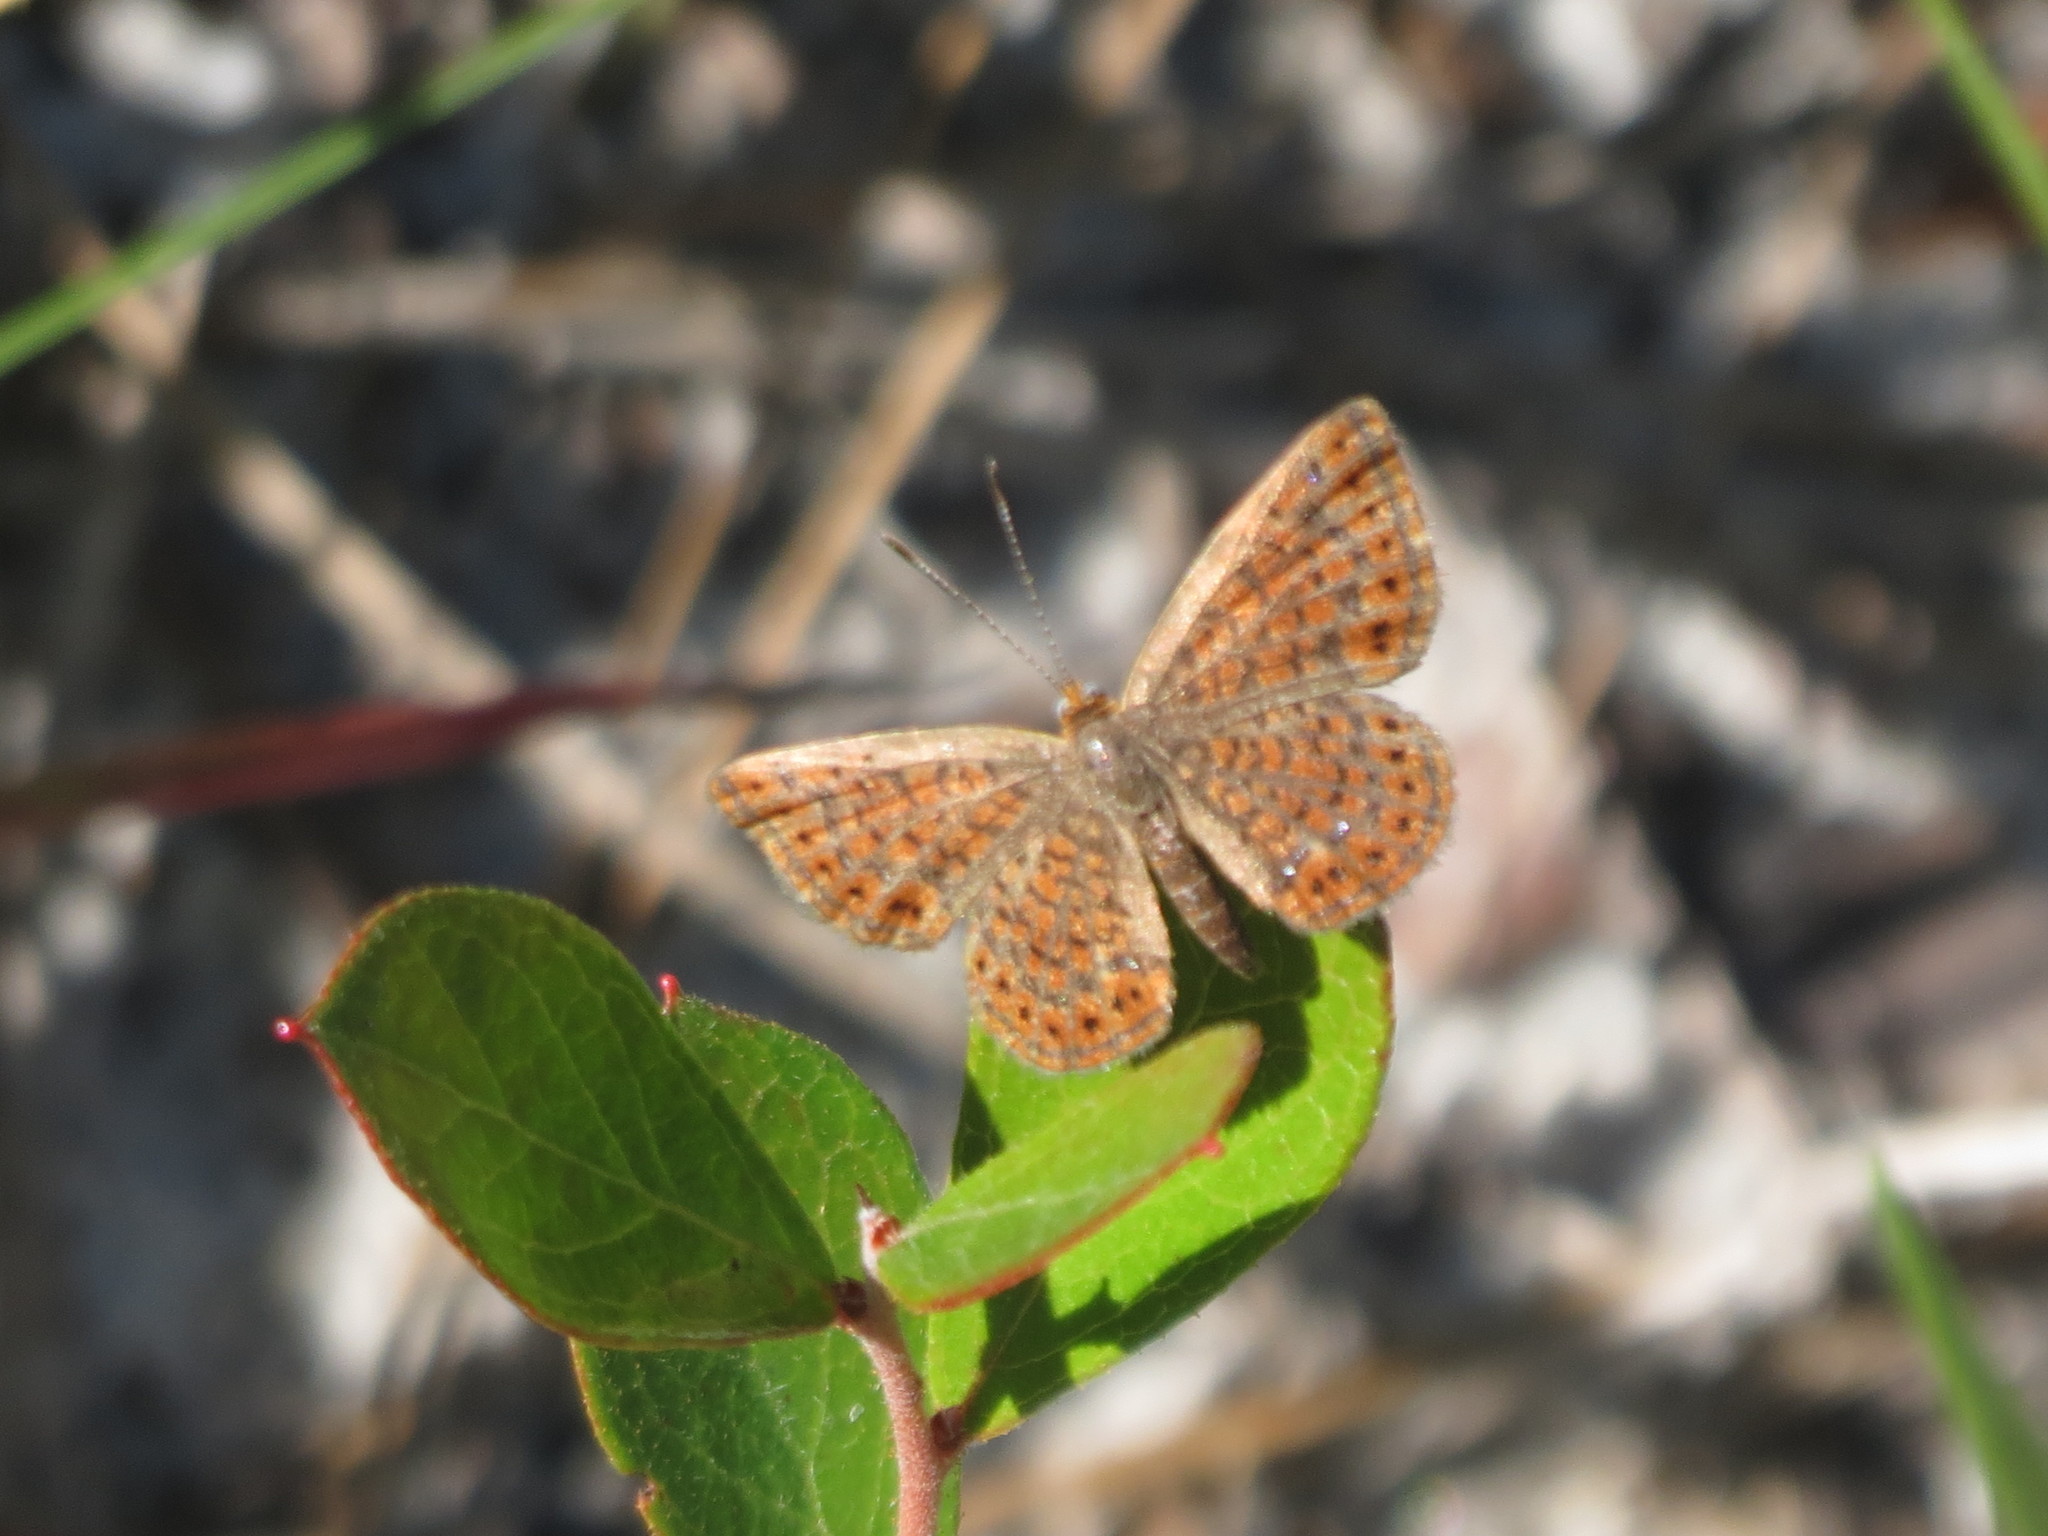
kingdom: Animalia
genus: Calephelis
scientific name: Calephelis virginiensis
